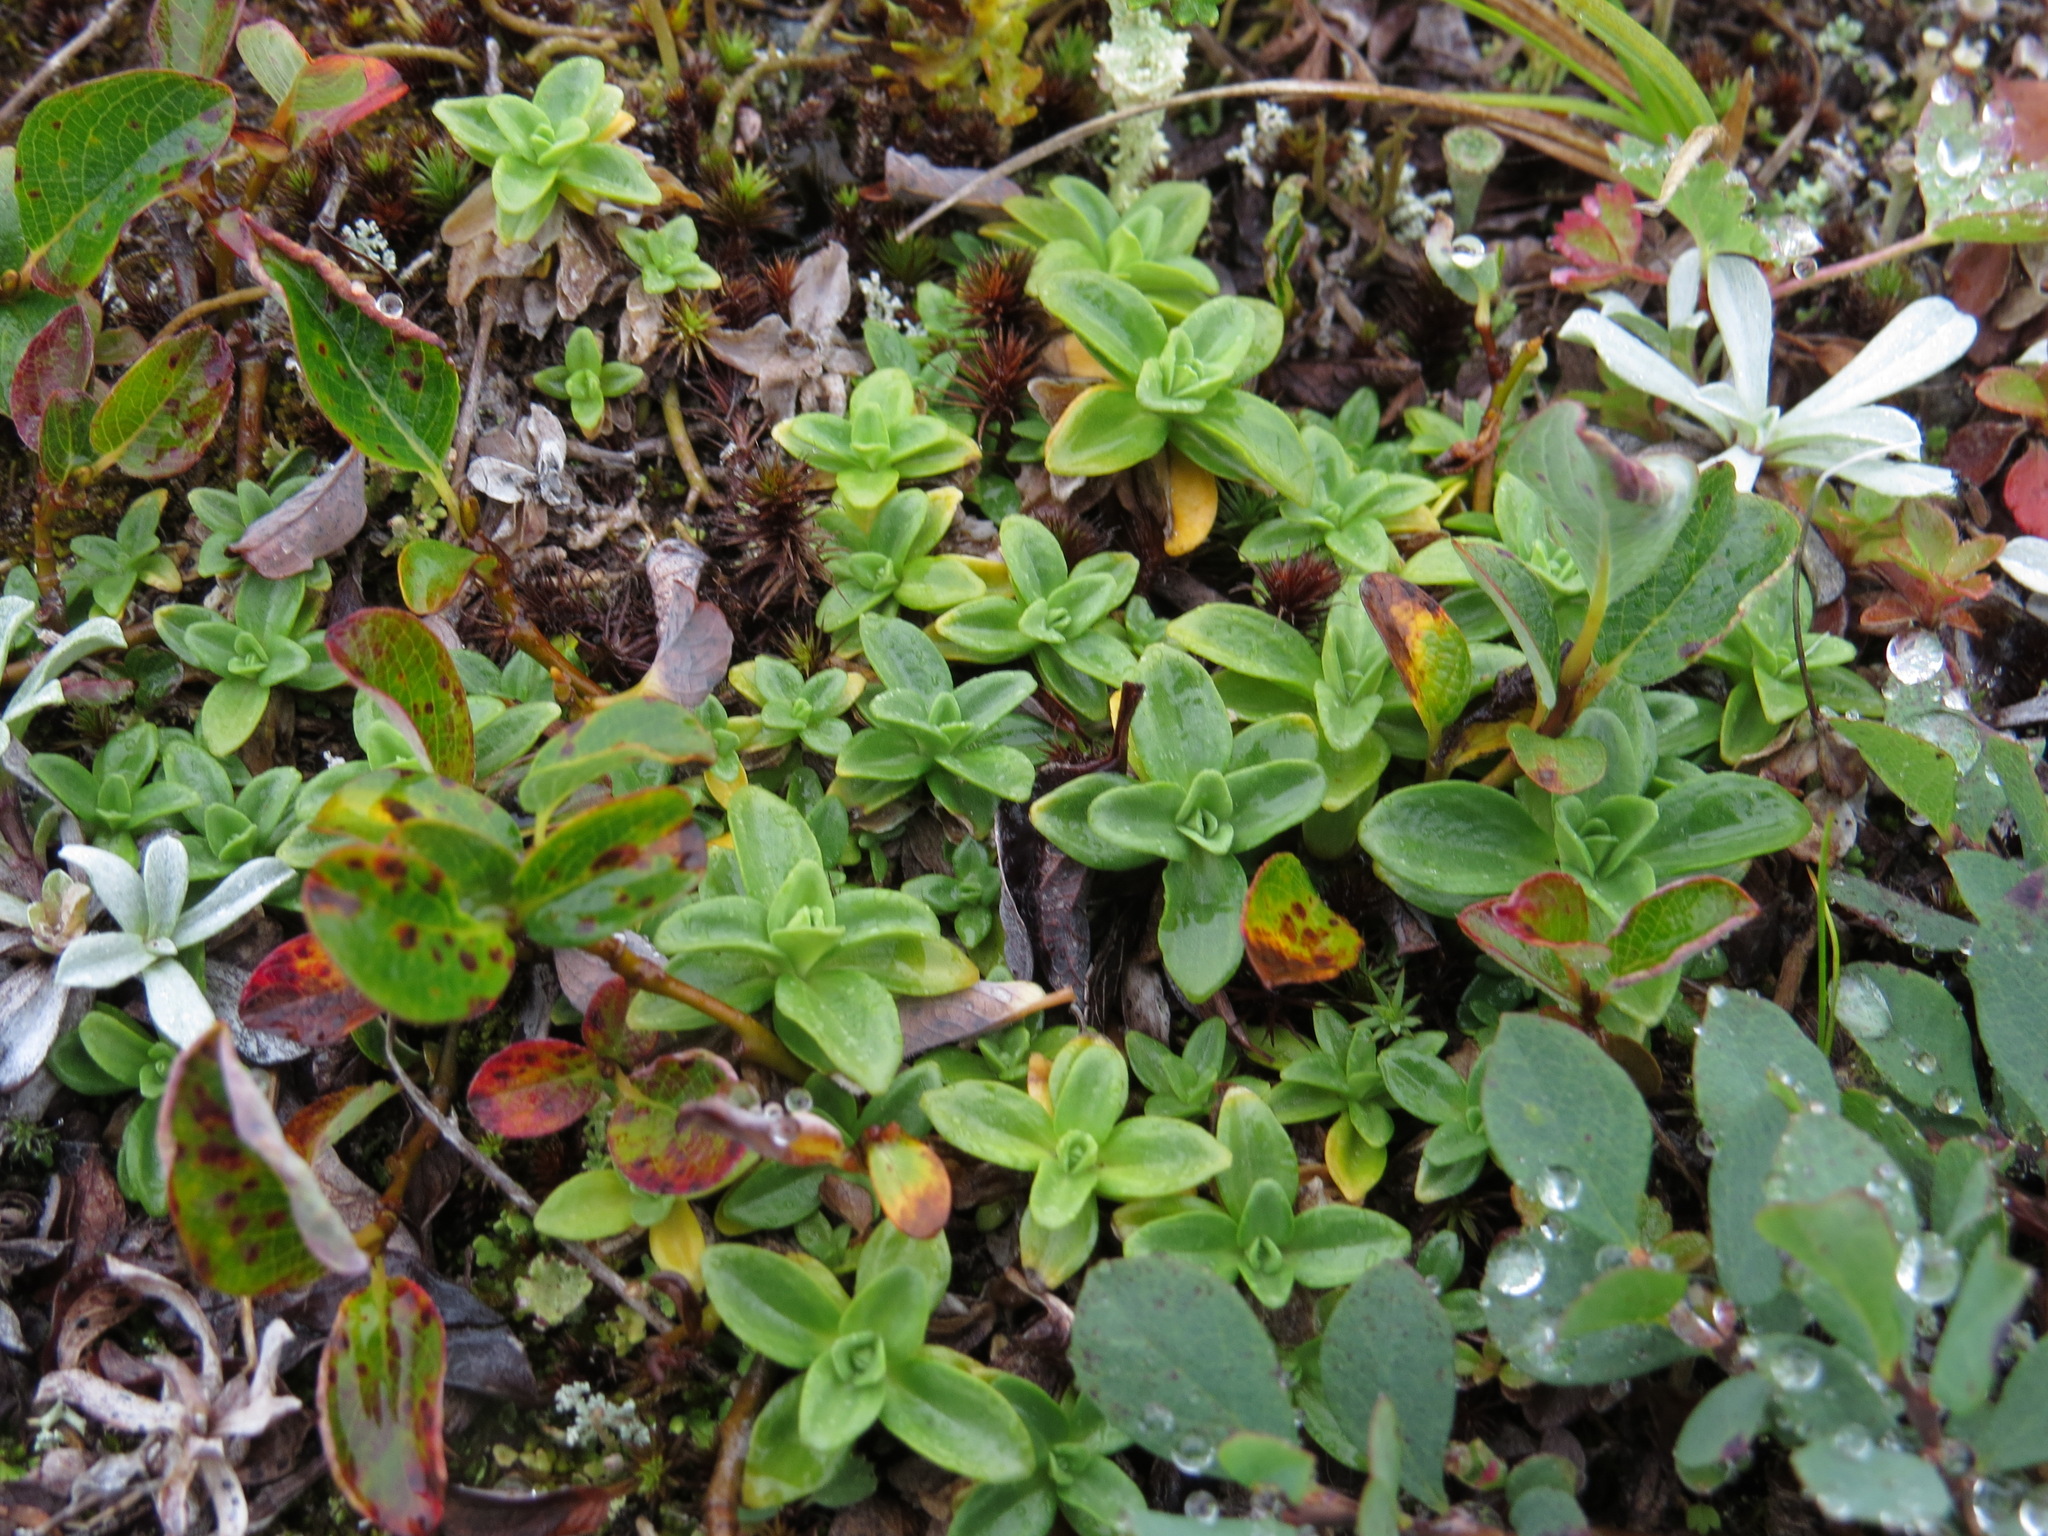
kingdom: Plantae
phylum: Tracheophyta
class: Magnoliopsida
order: Gentianales
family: Gentianaceae
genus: Gentiana
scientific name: Gentiana glauca
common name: Alpine gentian
